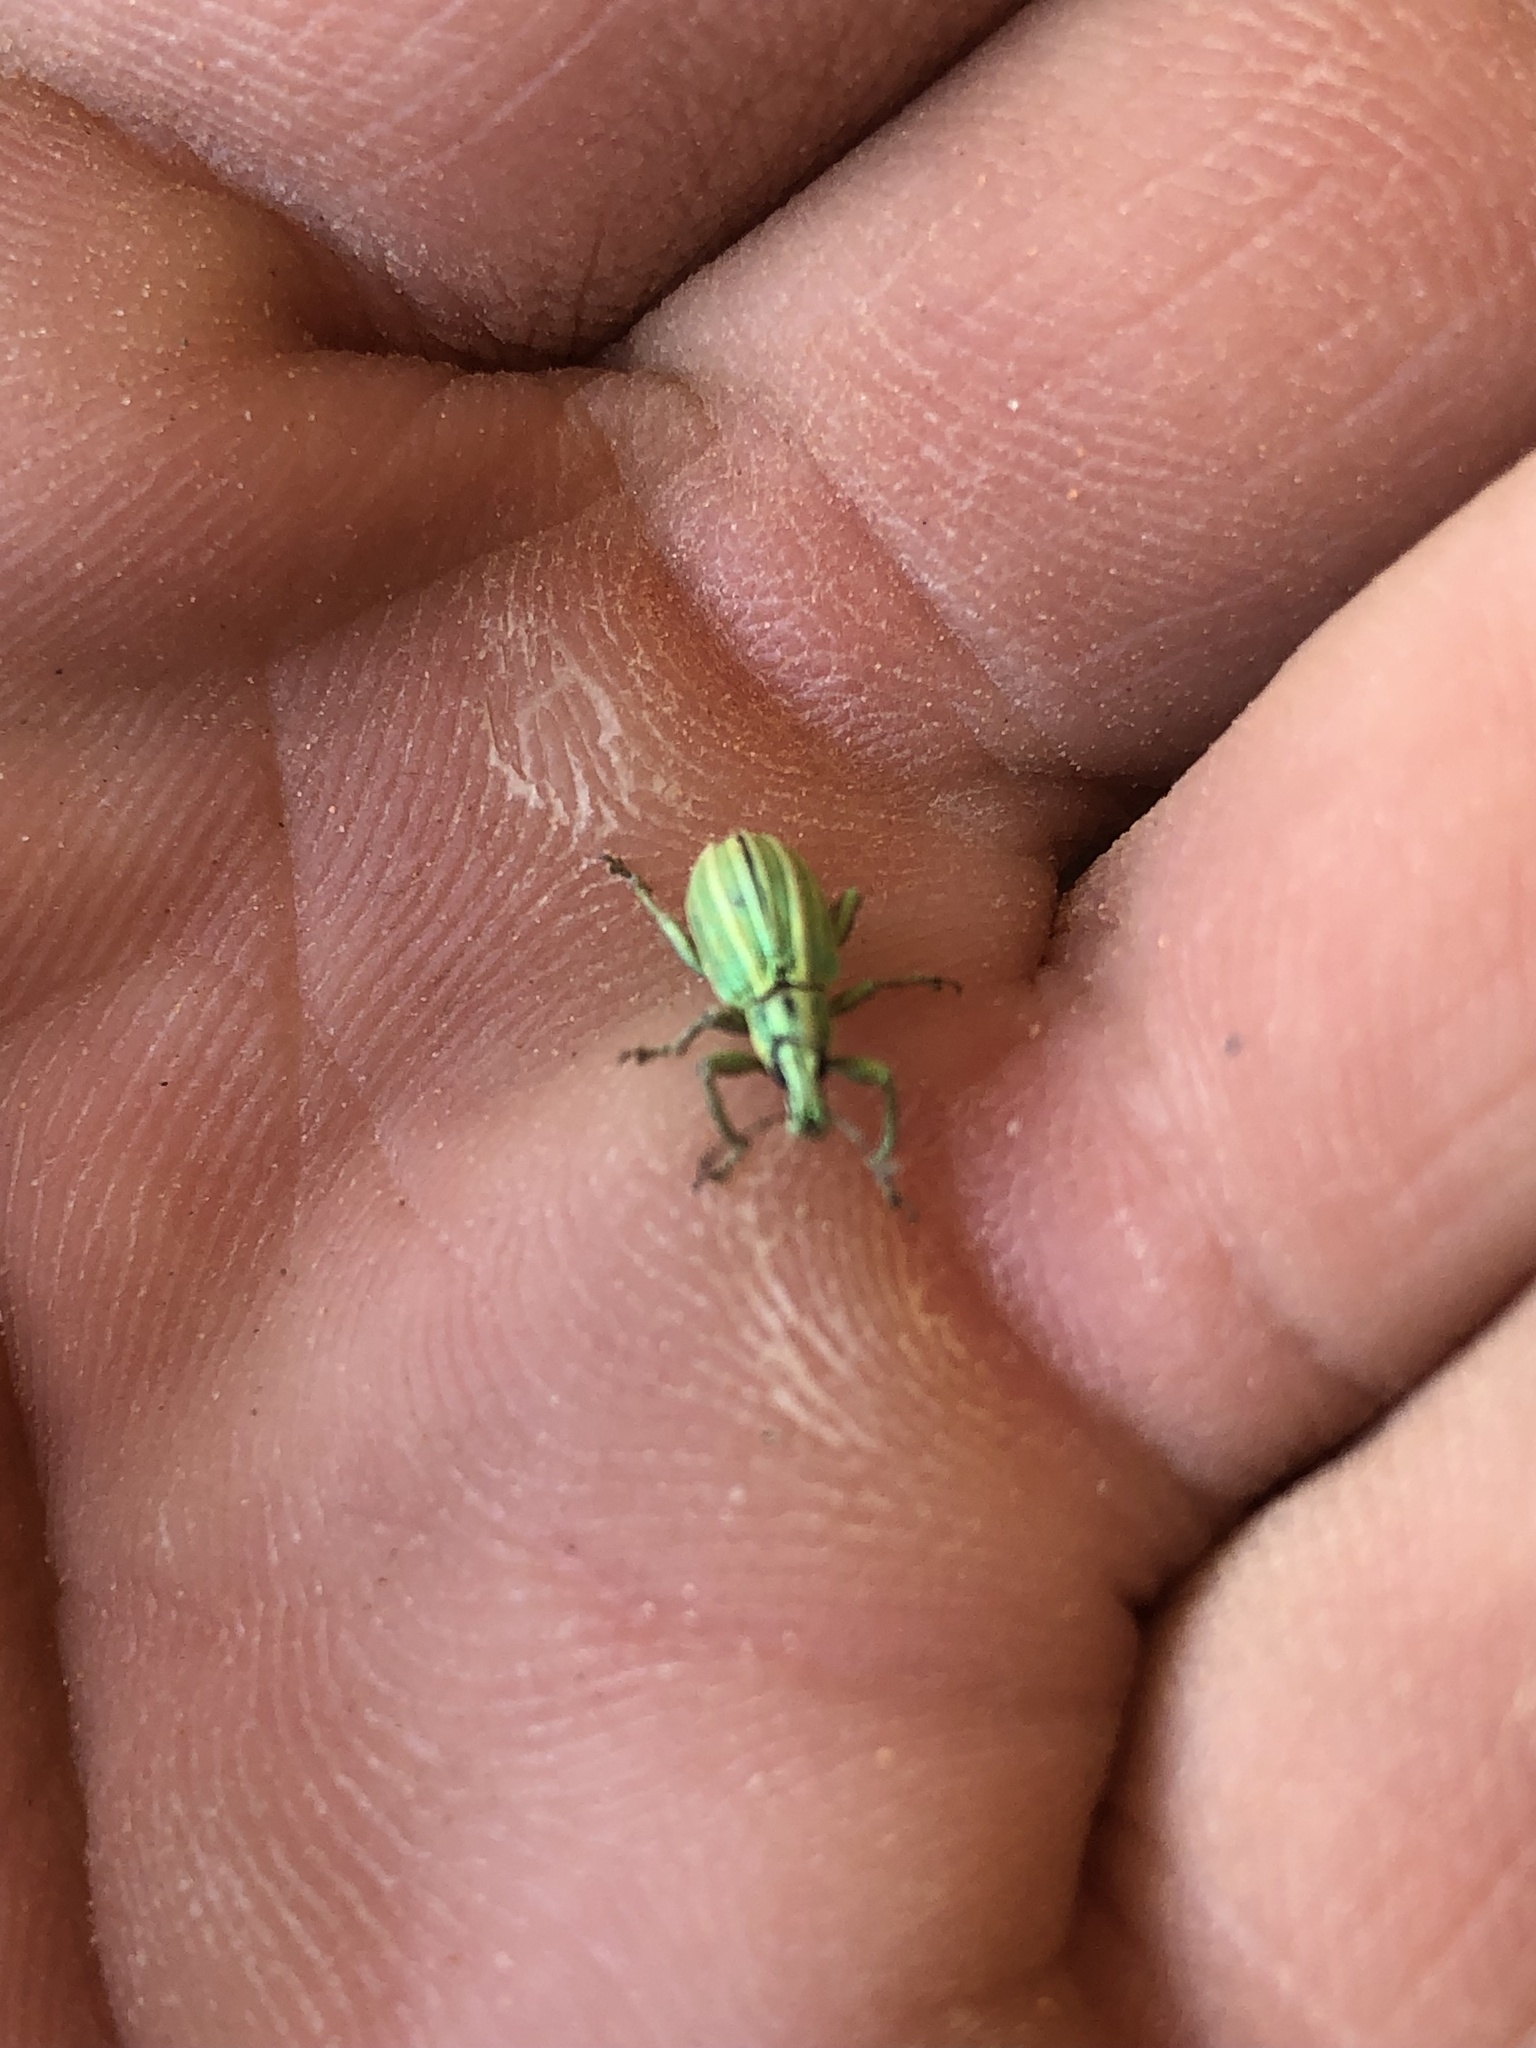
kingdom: Animalia
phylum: Arthropoda
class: Insecta
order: Coleoptera
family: Curculionidae
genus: Phaops
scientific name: Phaops ambitiosus
